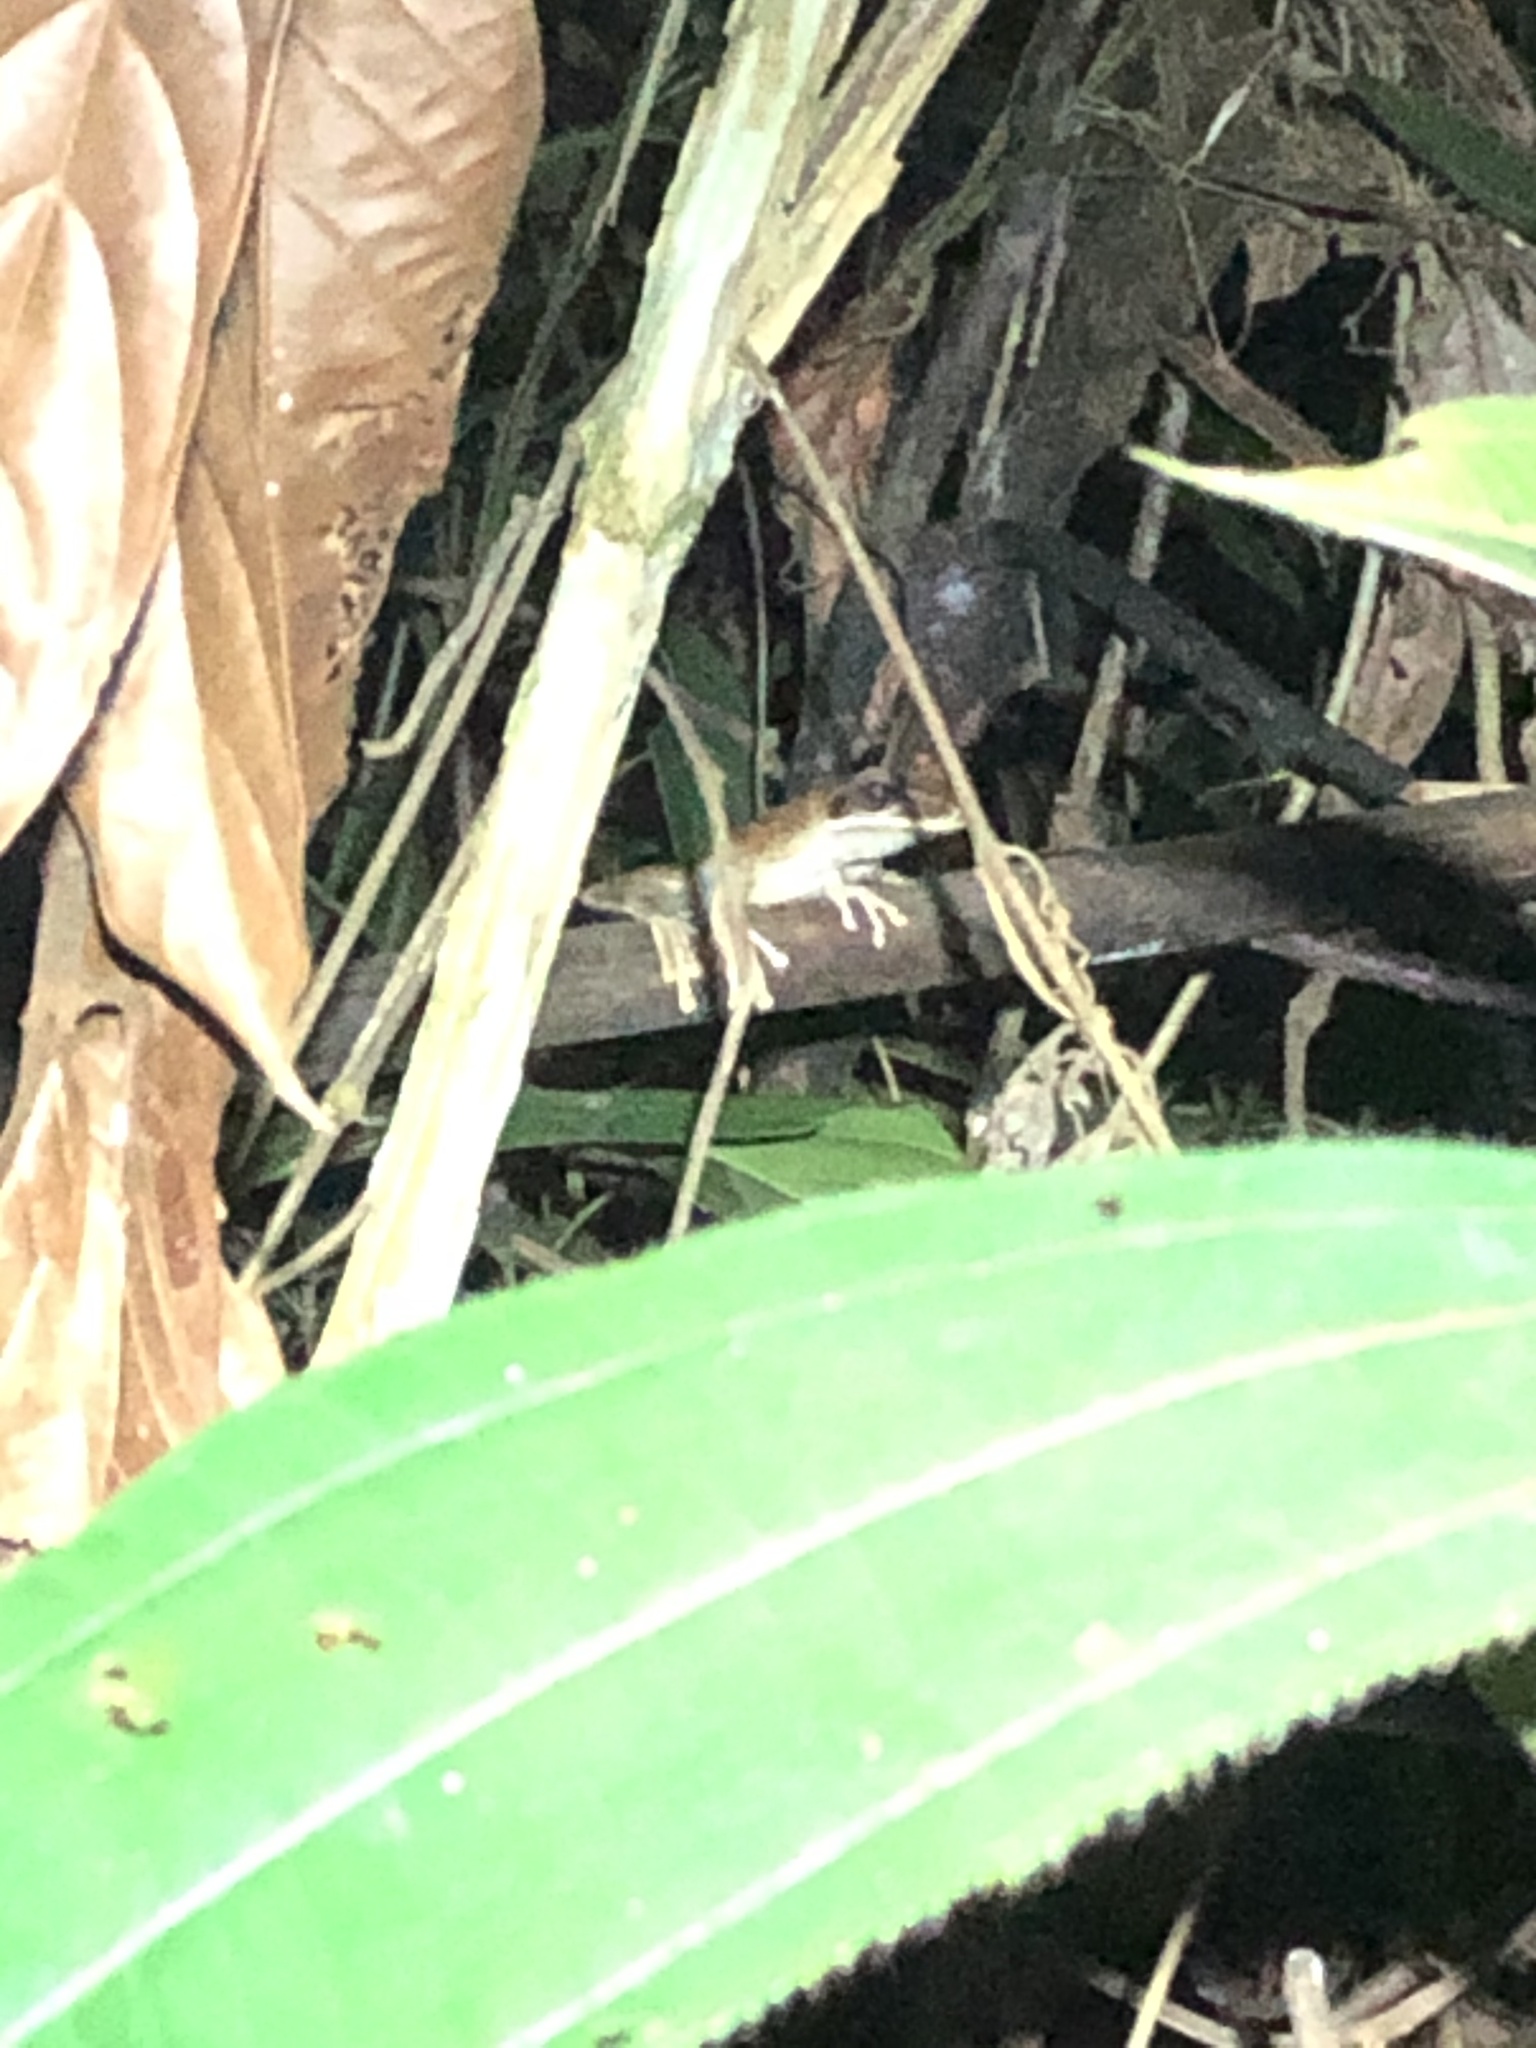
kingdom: Animalia
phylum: Chordata
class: Amphibia
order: Anura
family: Hylidae
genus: Boana
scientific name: Boana lanciformis
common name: Rana lanceolada commún
